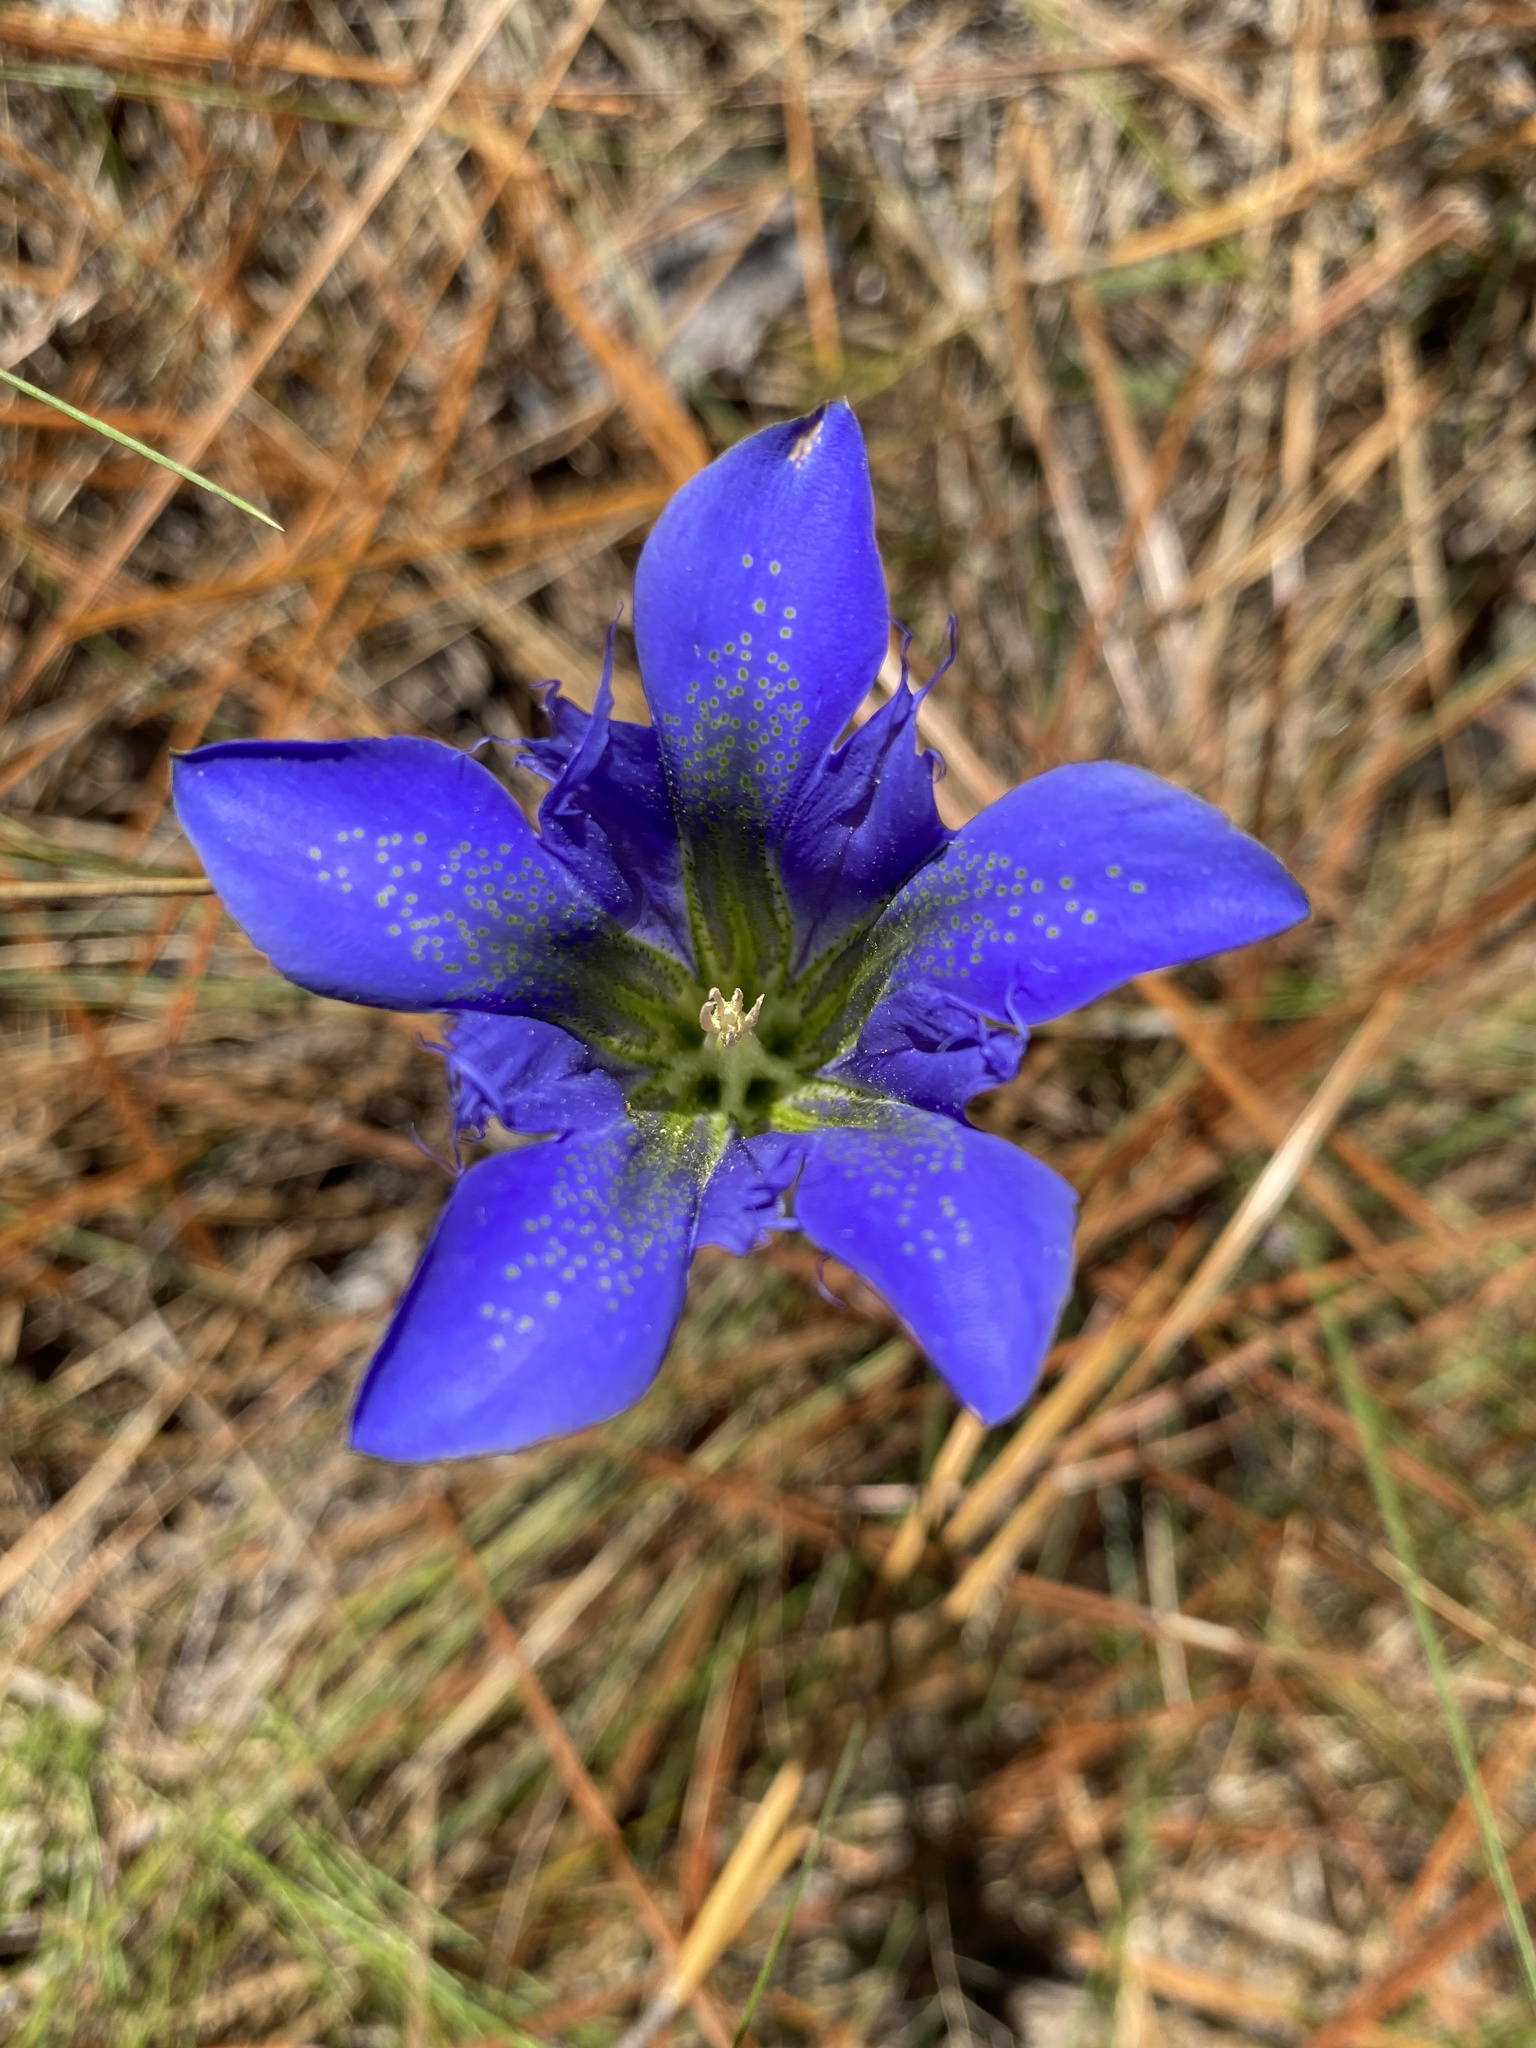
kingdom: Plantae
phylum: Tracheophyta
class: Magnoliopsida
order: Gentianales
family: Gentianaceae
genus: Gentiana
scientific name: Gentiana autumnalis
